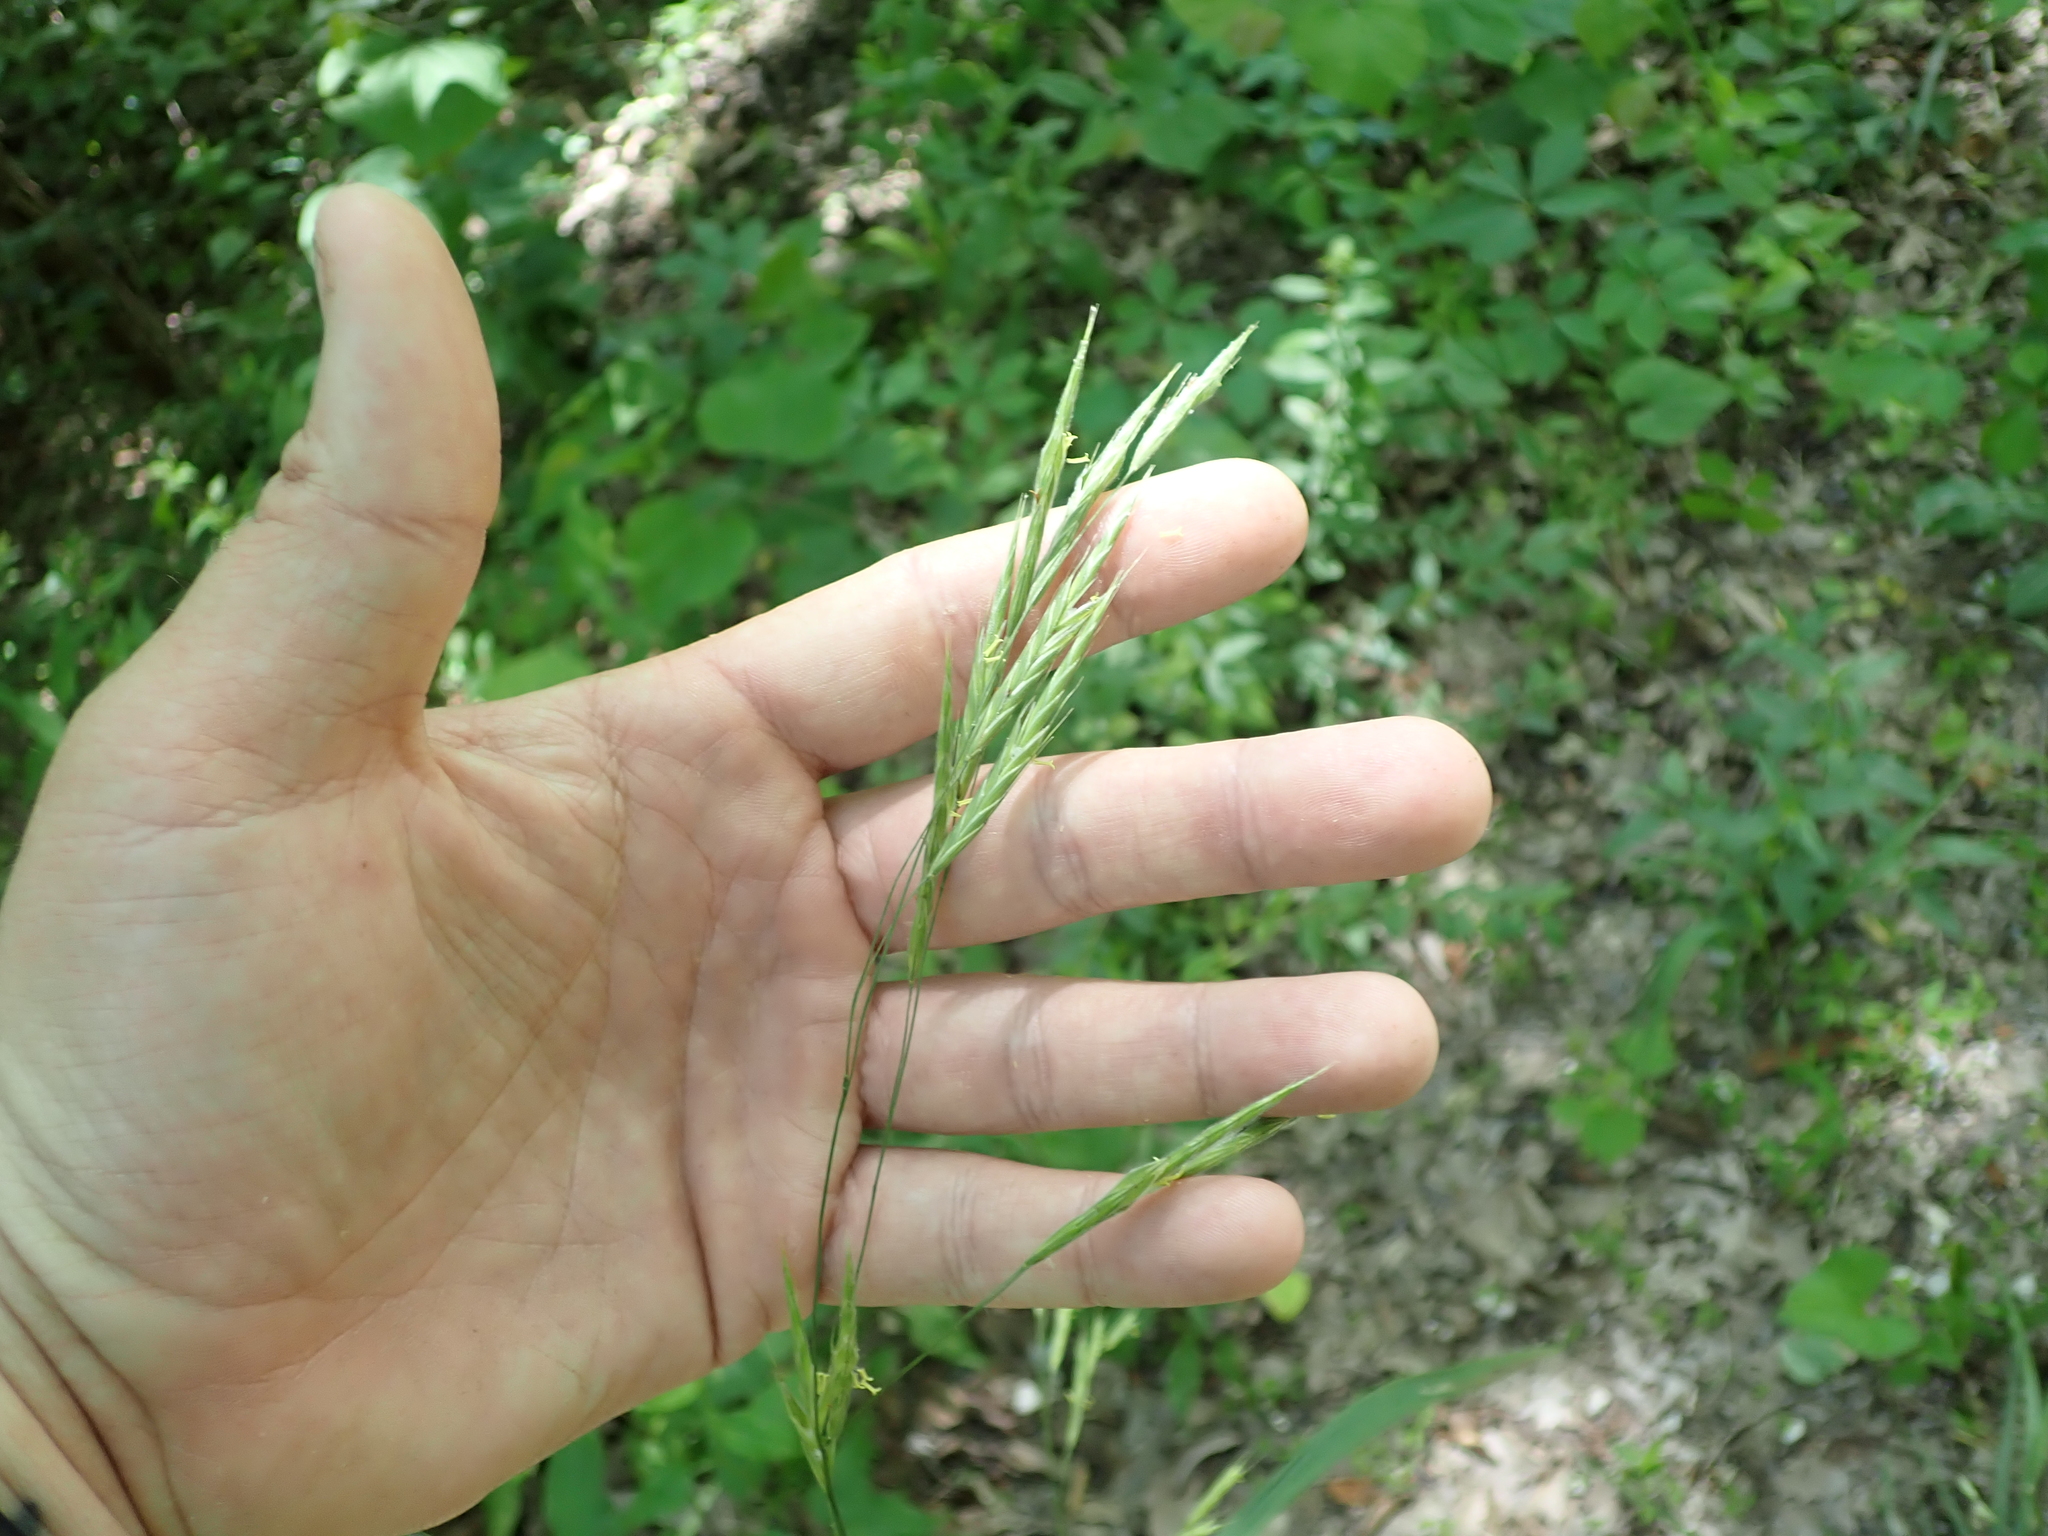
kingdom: Plantae
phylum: Tracheophyta
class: Liliopsida
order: Poales
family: Poaceae
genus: Bromus
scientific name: Bromus pubescens
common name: Hairy wood brome grass
